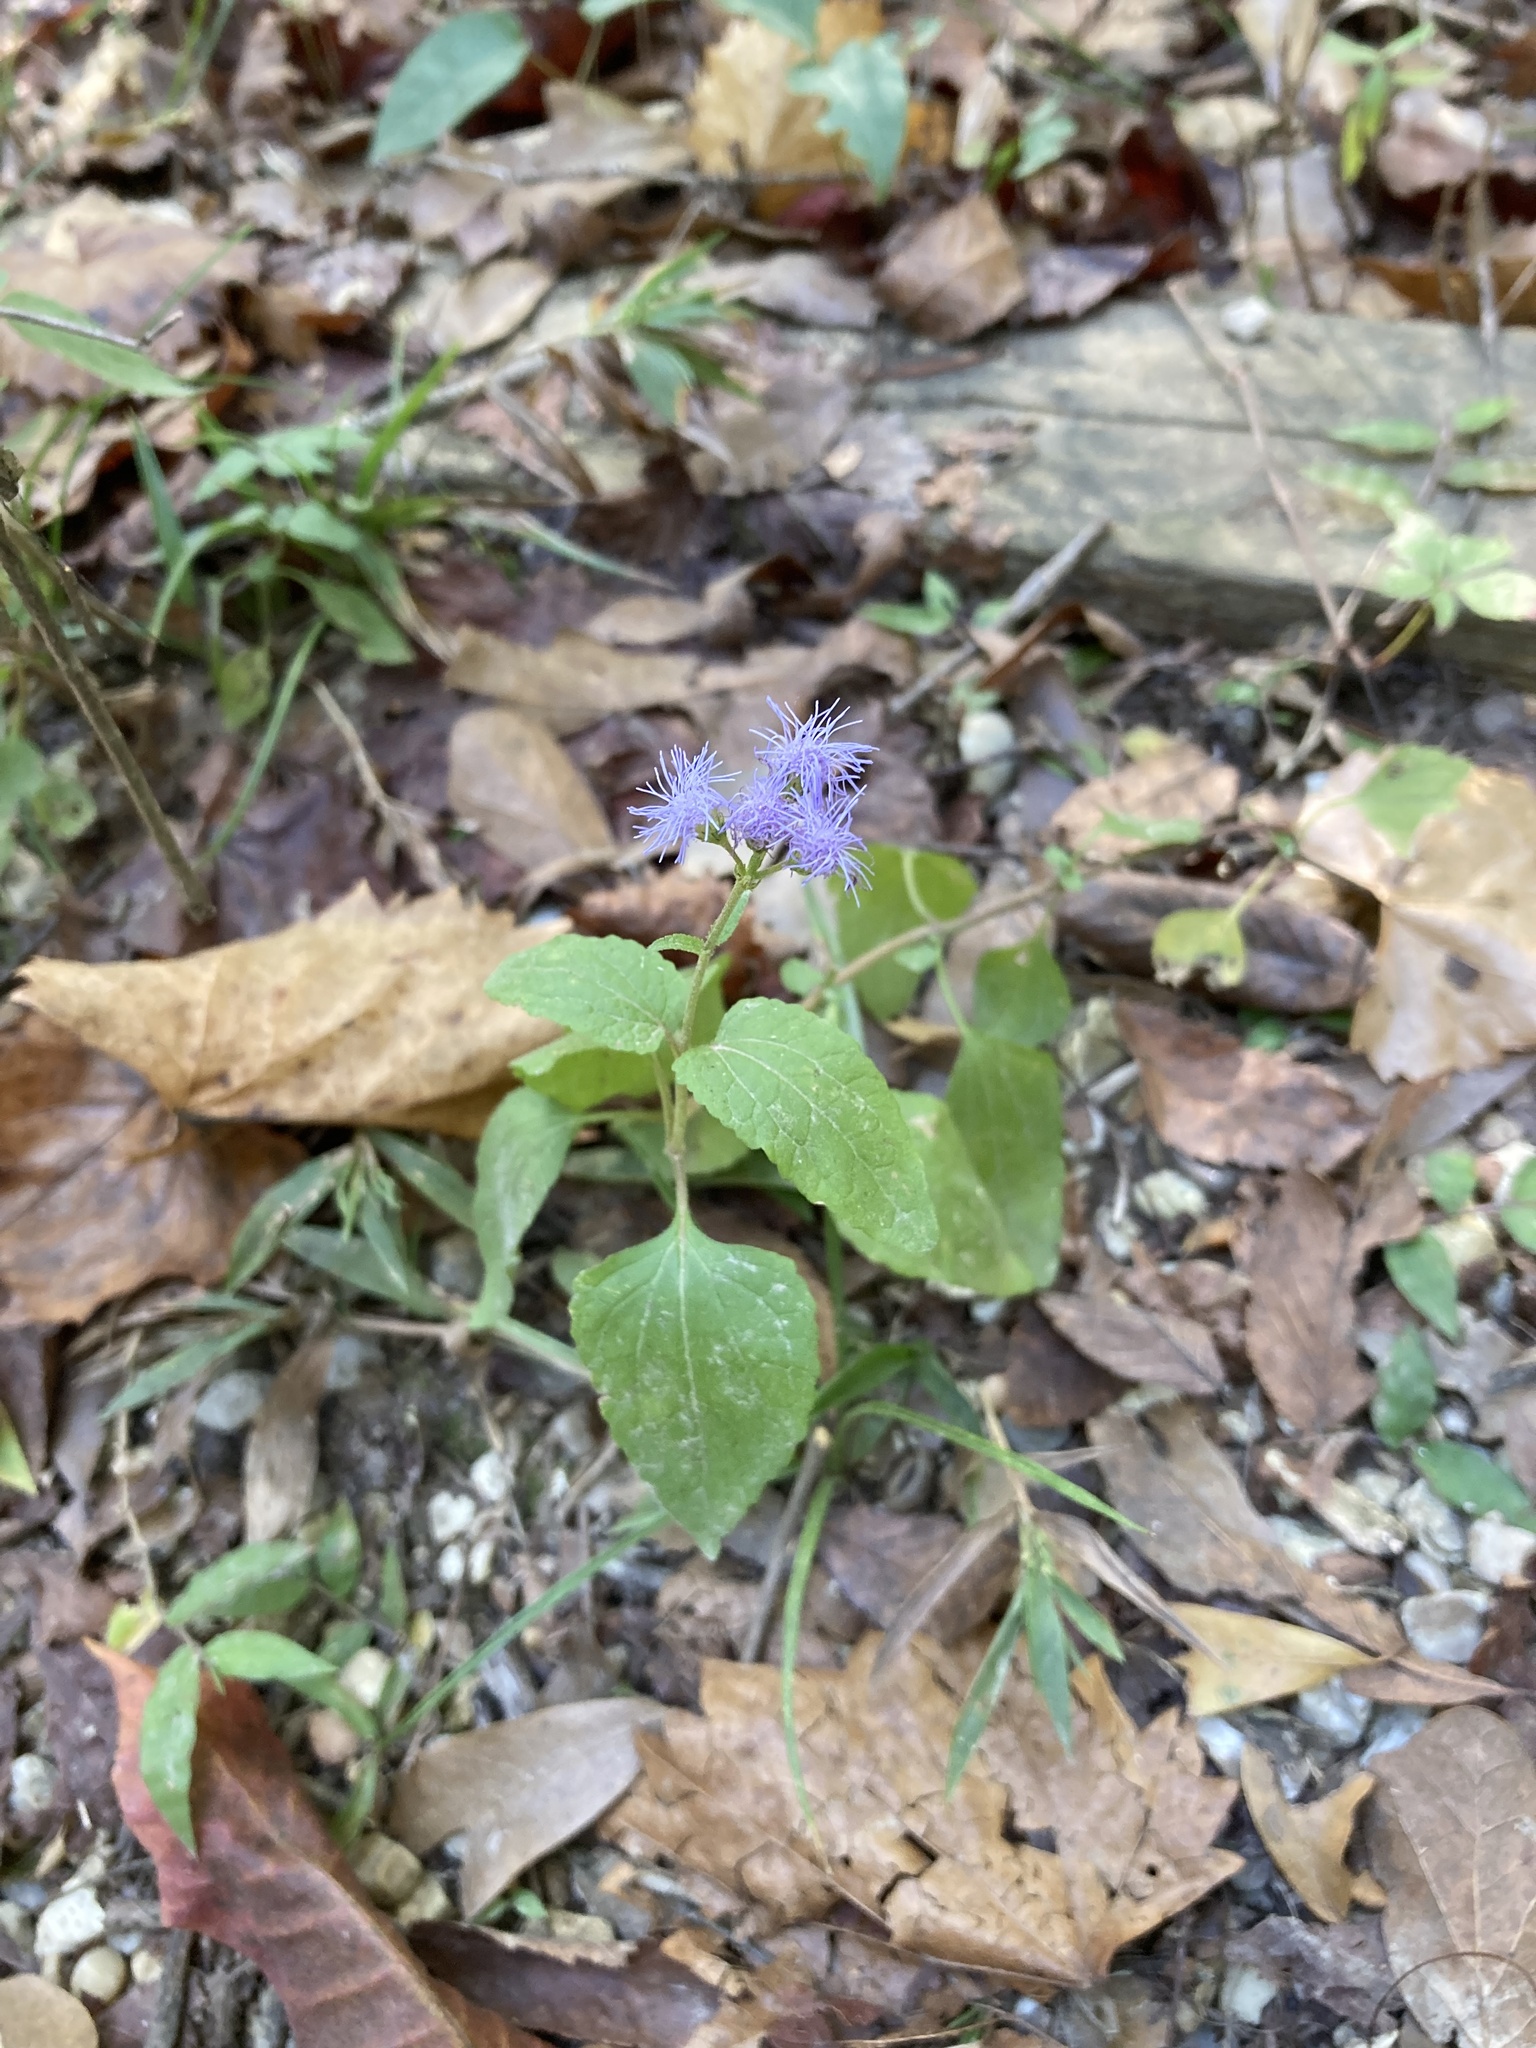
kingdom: Plantae
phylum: Tracheophyta
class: Magnoliopsida
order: Asterales
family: Asteraceae
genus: Conoclinium
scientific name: Conoclinium coelestinum
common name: Blue mistflower
